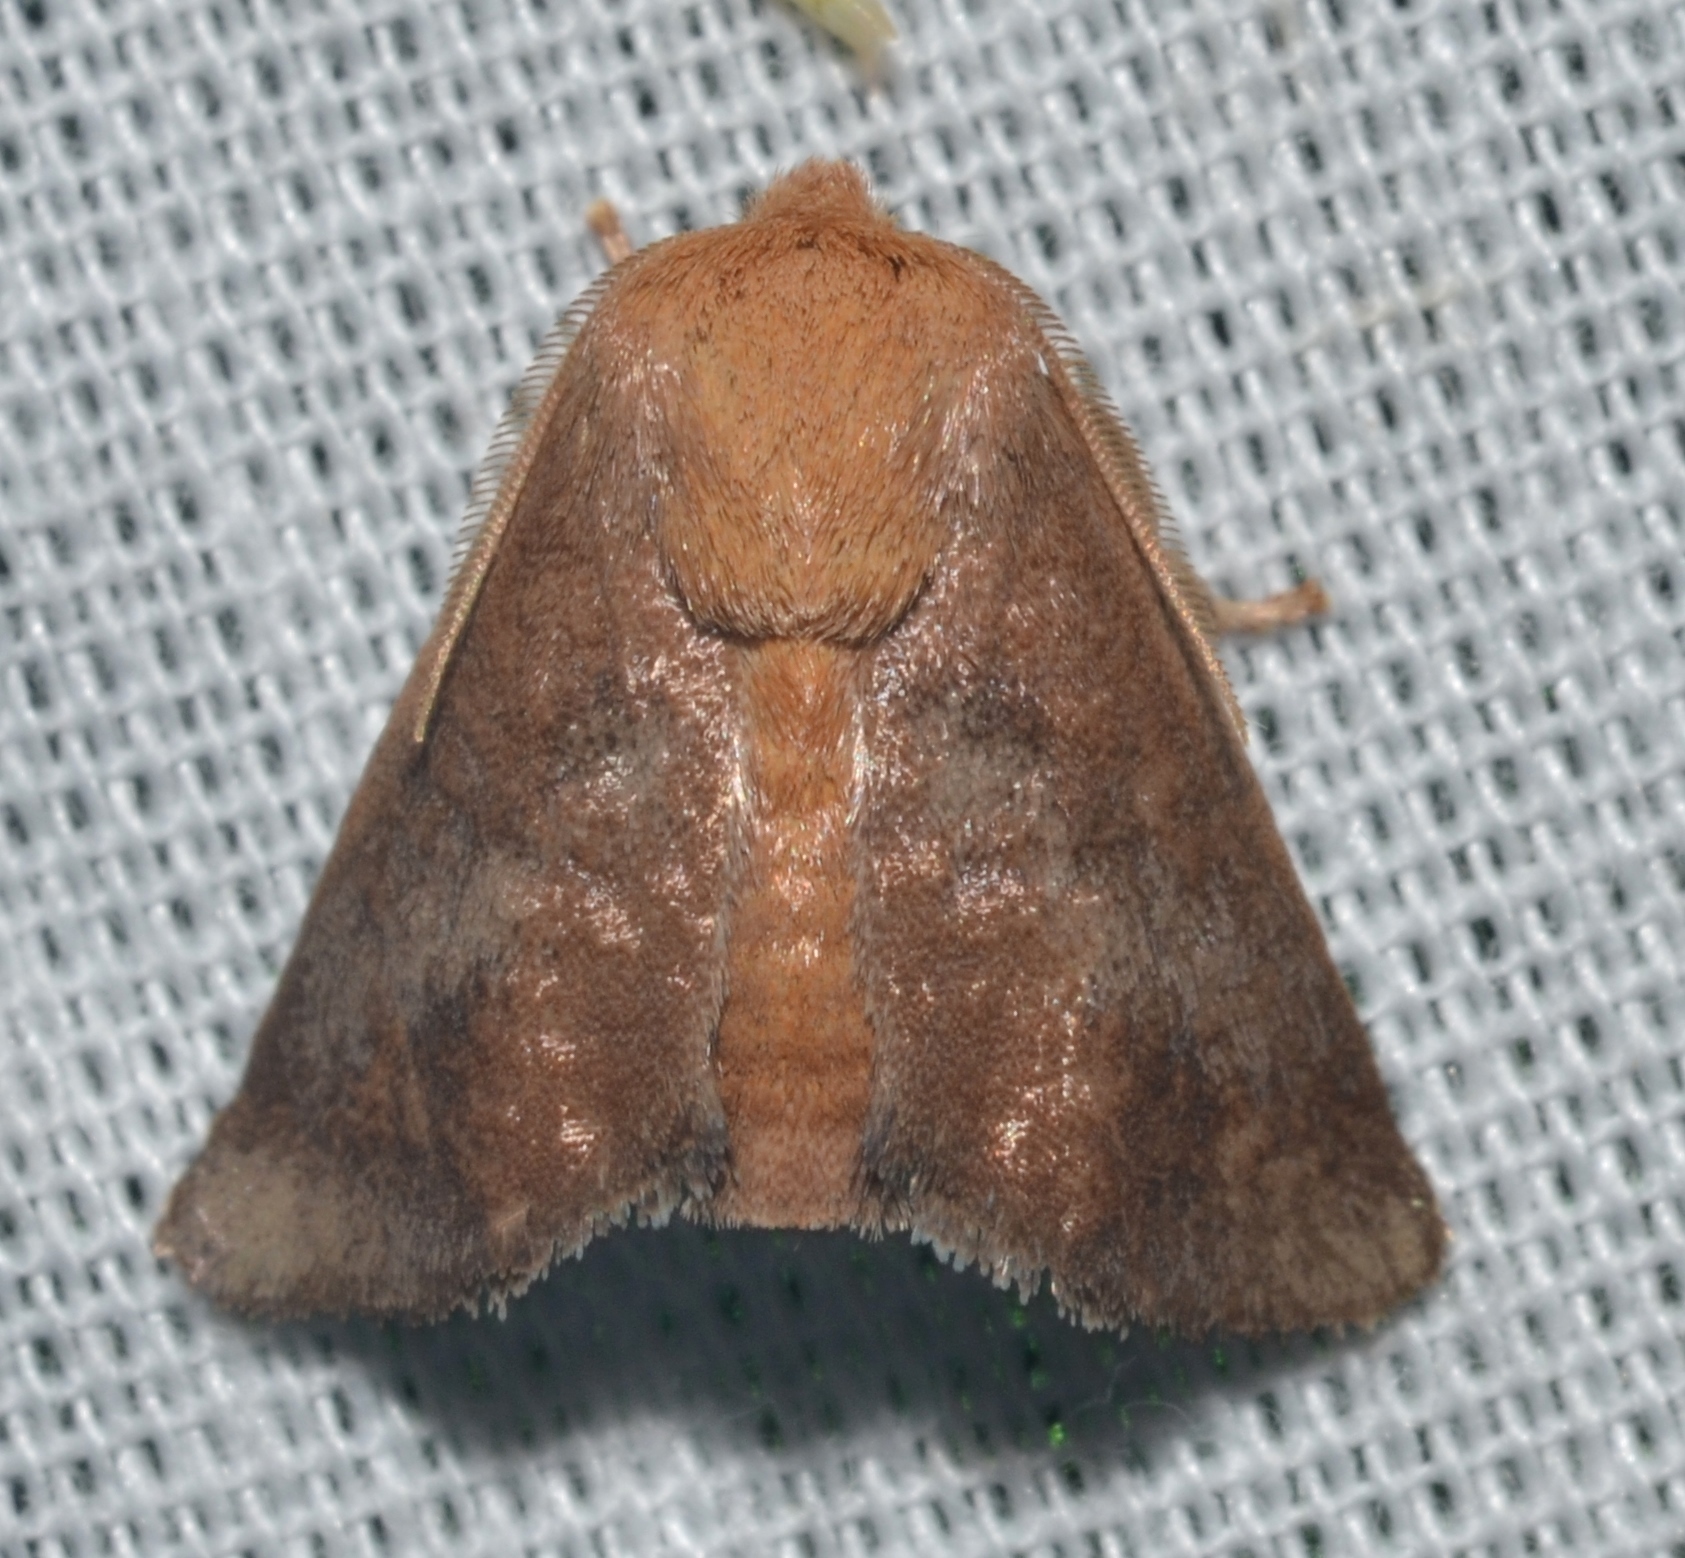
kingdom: Animalia
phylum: Arthropoda
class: Insecta
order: Lepidoptera
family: Limacodidae
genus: Isa
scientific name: Isa textula
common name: Crowned slug moth
